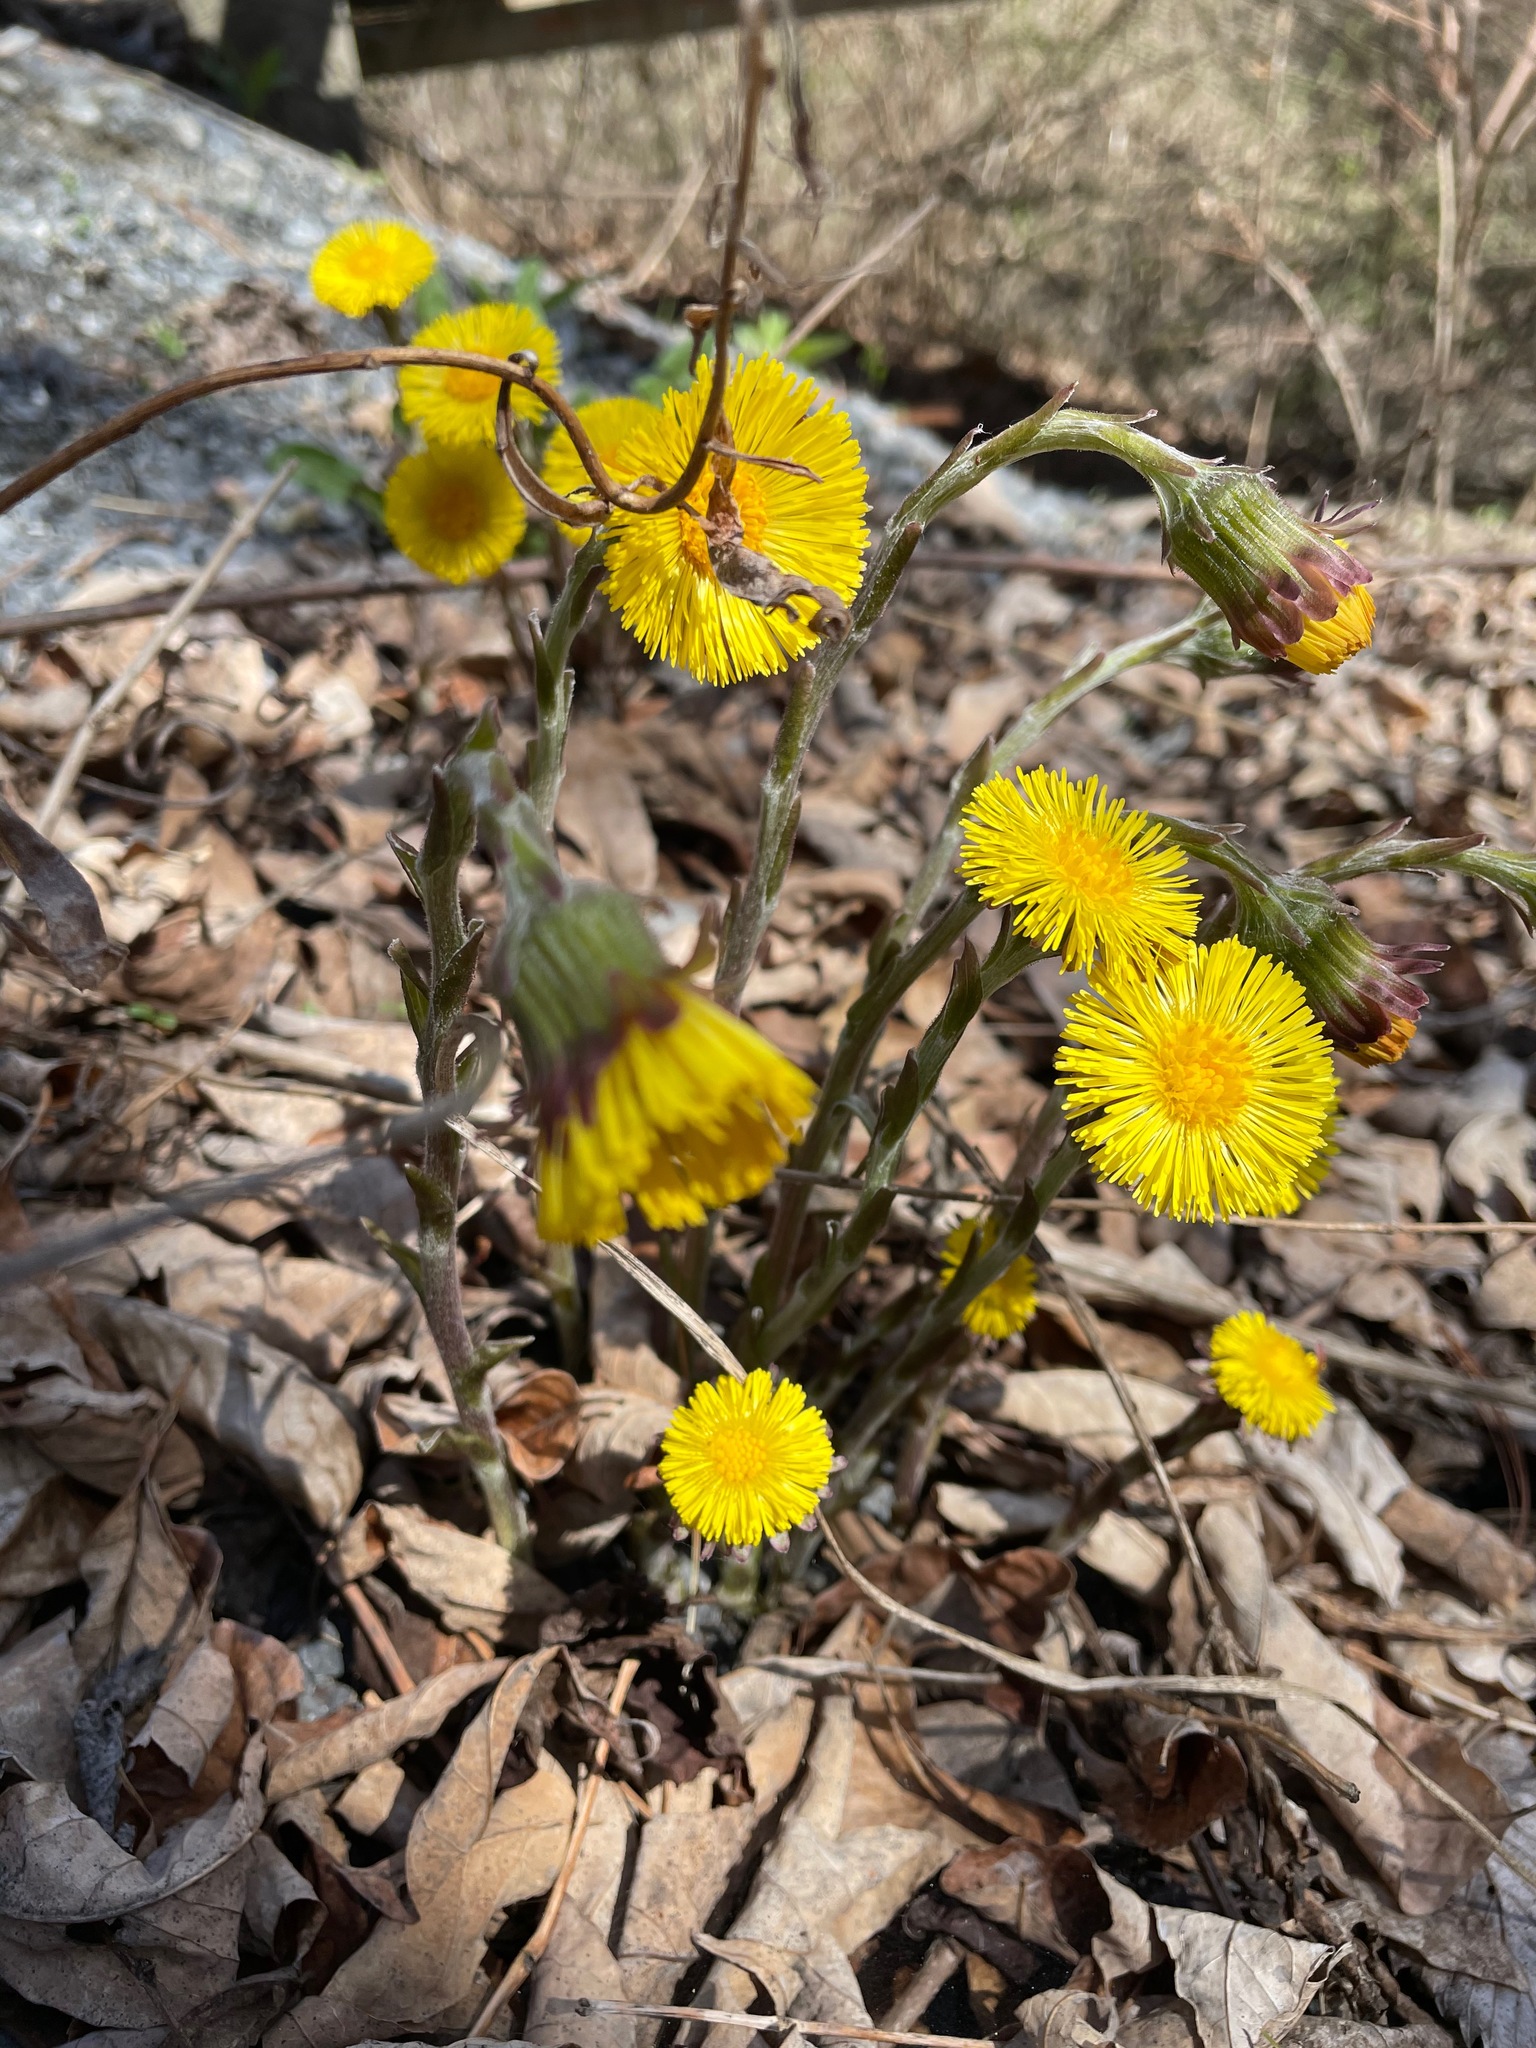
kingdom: Plantae
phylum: Tracheophyta
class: Magnoliopsida
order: Asterales
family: Asteraceae
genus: Tussilago
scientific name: Tussilago farfara
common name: Coltsfoot
